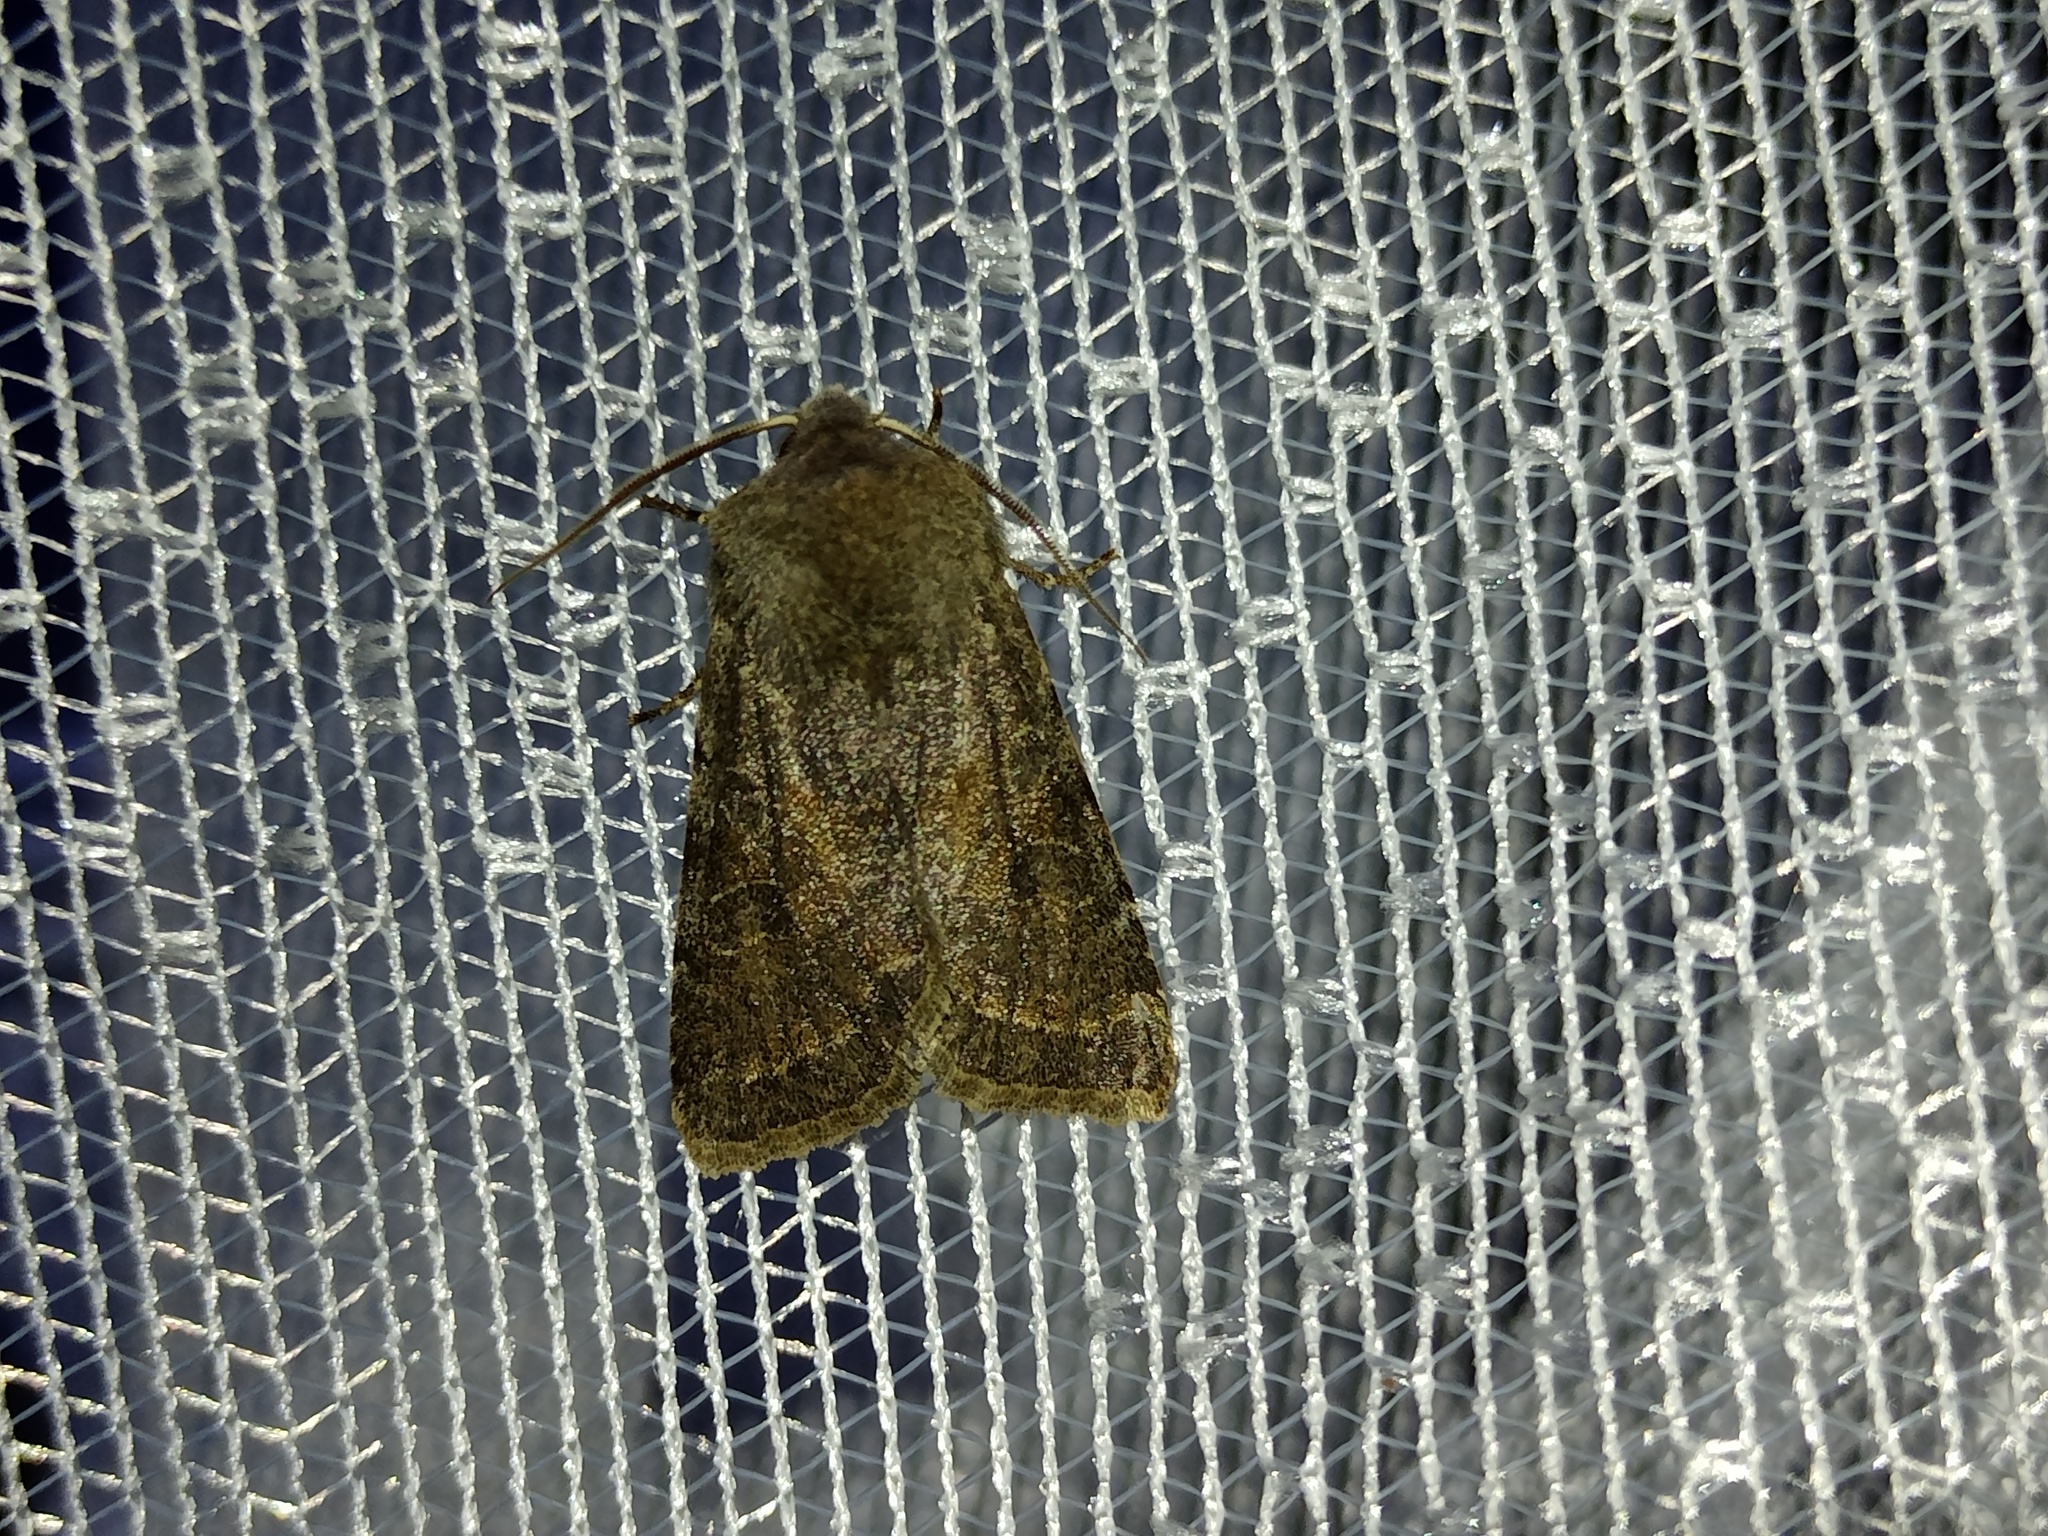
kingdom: Animalia
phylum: Arthropoda
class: Insecta
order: Lepidoptera
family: Noctuidae
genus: Orthosia
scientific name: Orthosia incerta
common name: Clouded drab
